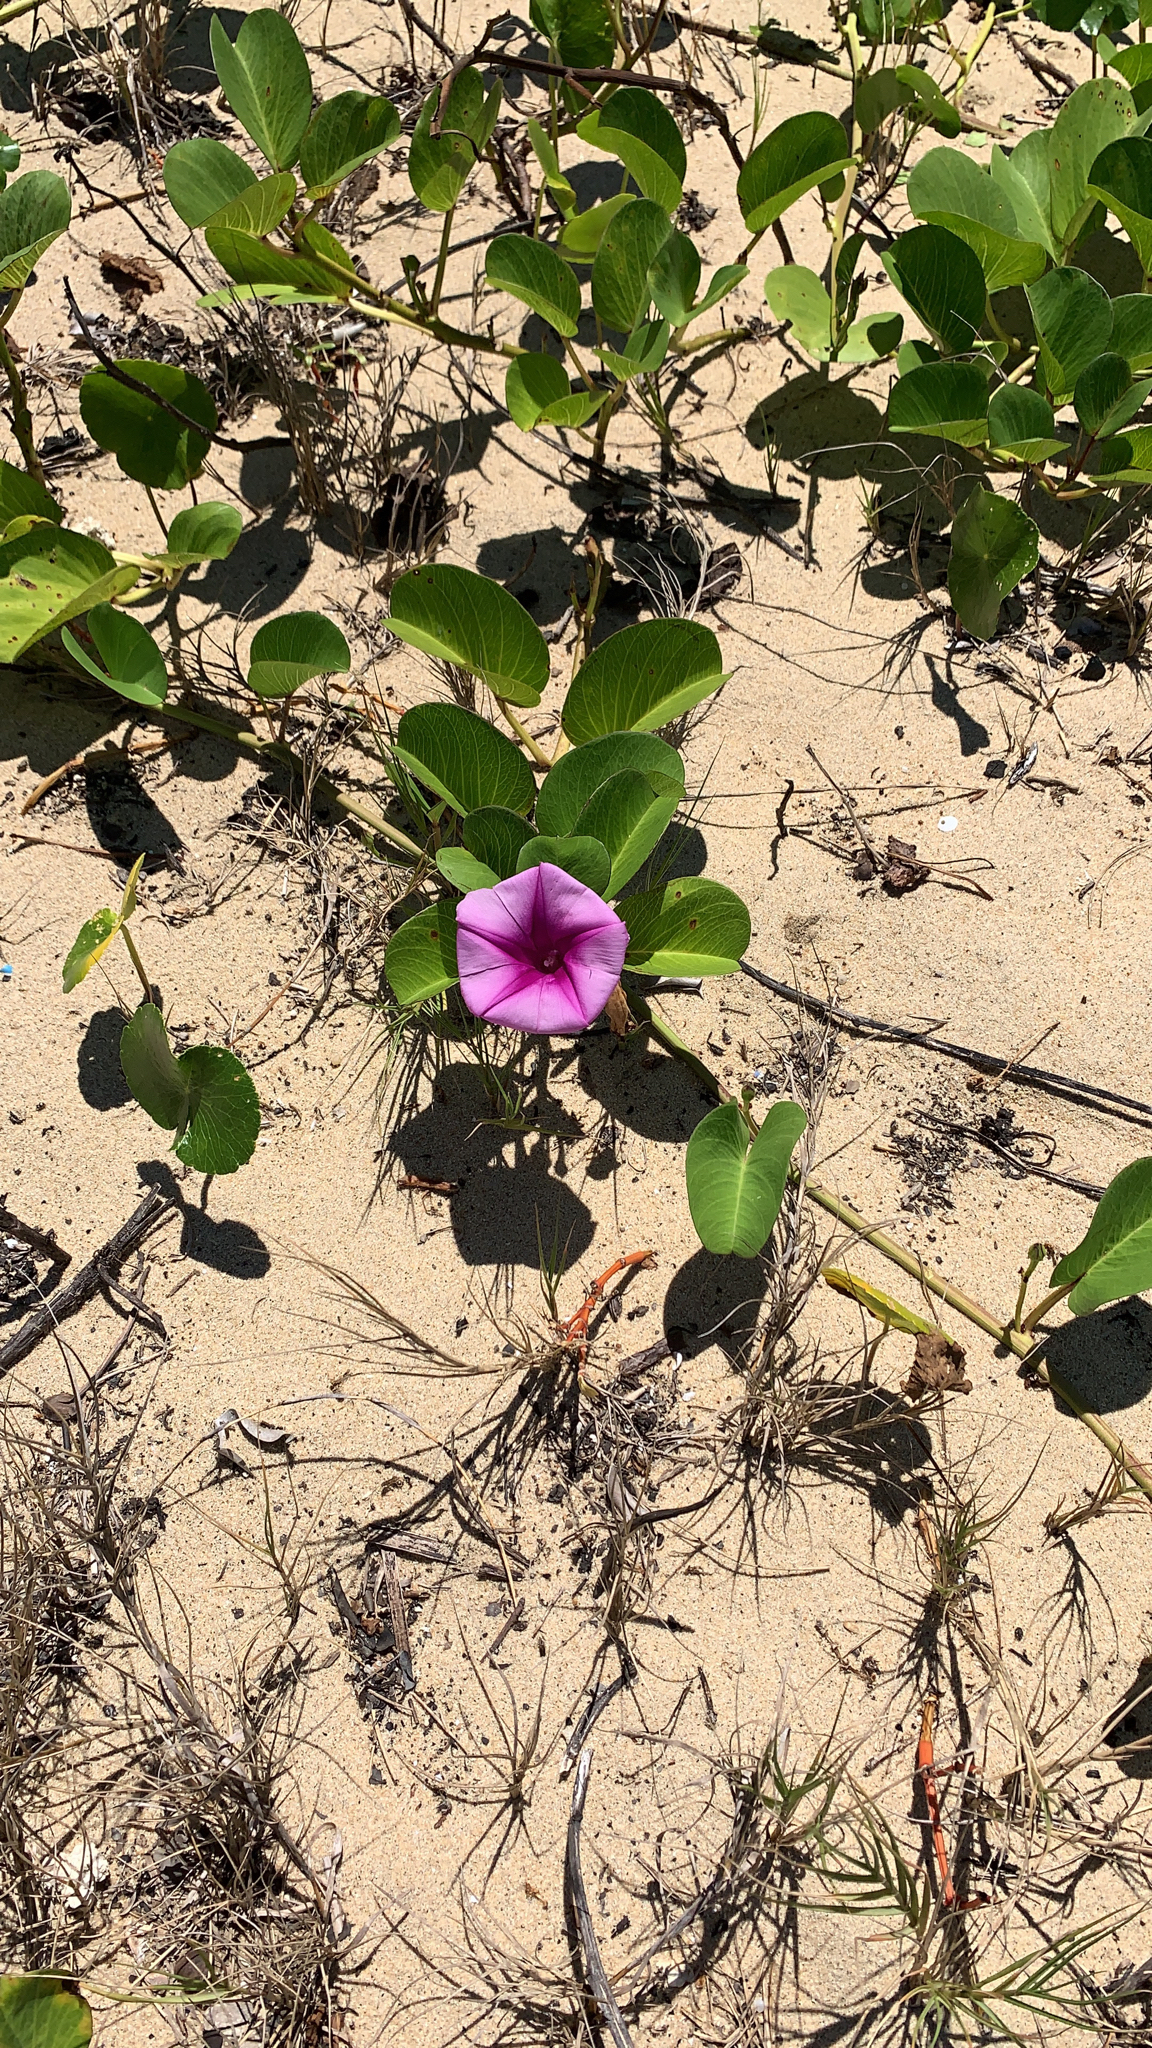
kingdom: Plantae
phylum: Tracheophyta
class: Magnoliopsida
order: Solanales
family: Convolvulaceae
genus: Ipomoea
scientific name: Ipomoea pes-caprae
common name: Beach morning glory
